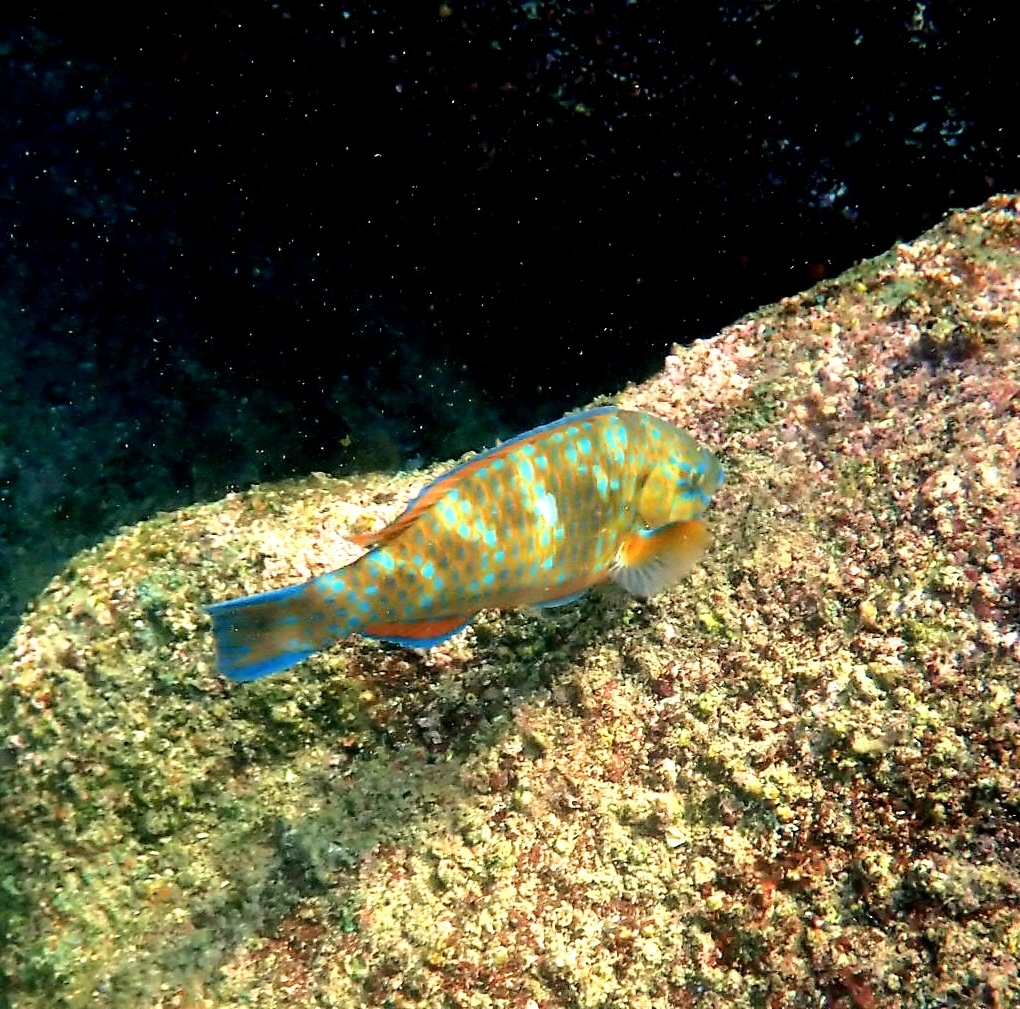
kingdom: Animalia
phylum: Chordata
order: Perciformes
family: Scaridae
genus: Scarus
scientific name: Scarus ghobban
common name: Blue-barred parrotfish
